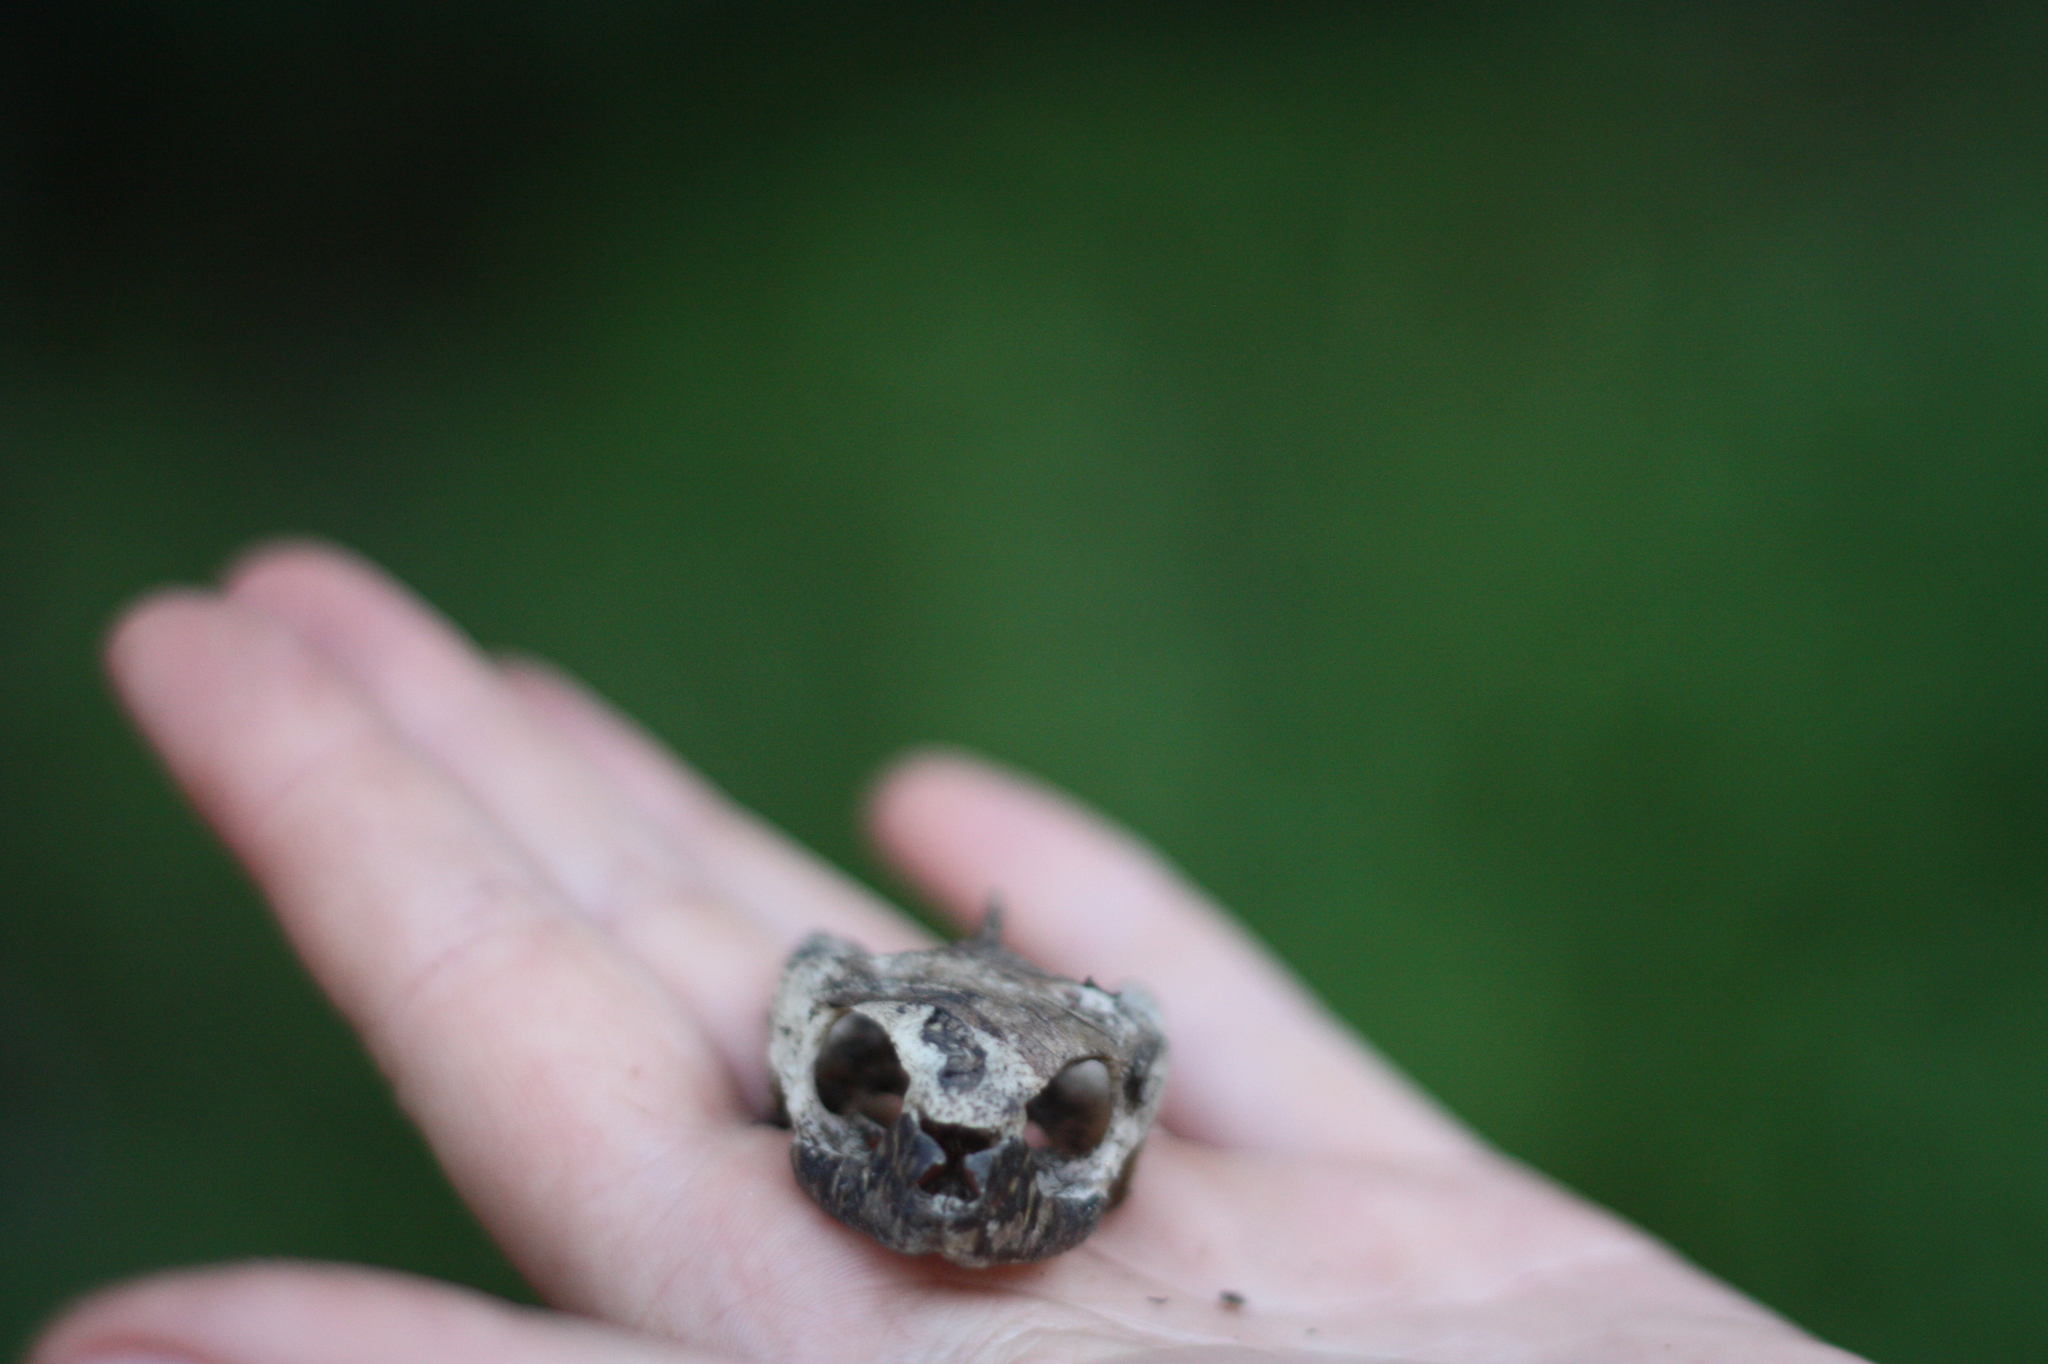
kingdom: Animalia
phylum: Chordata
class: Testudines
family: Emydidae
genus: Emys
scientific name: Emys orbicularis
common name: European pond turtle
